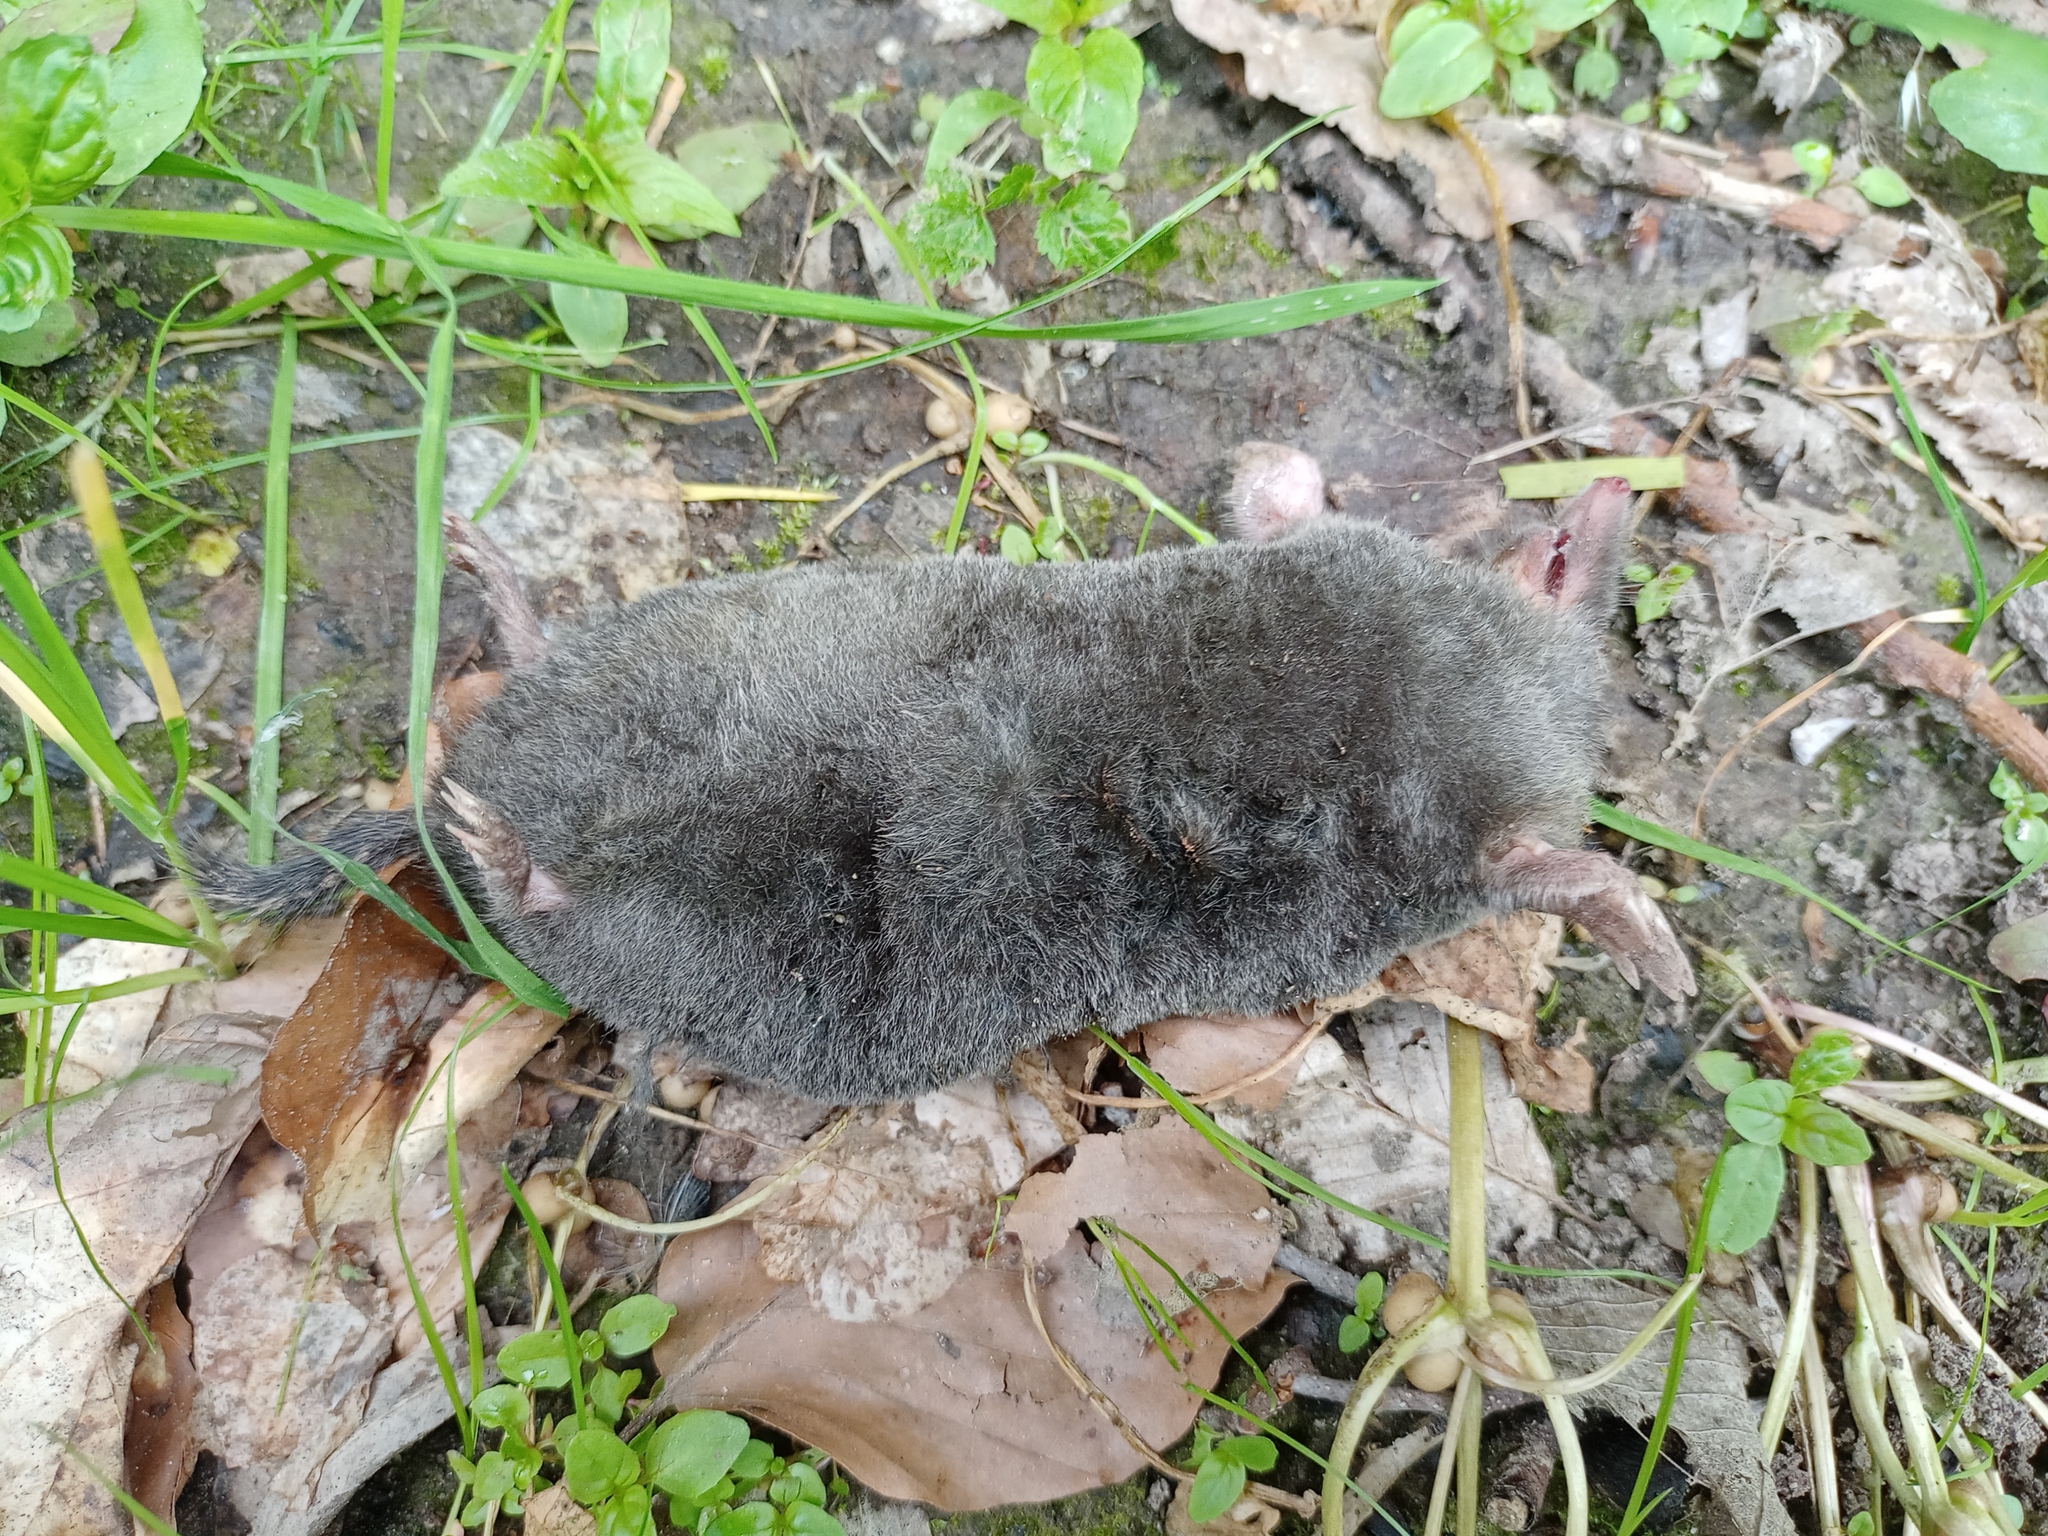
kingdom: Animalia
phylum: Chordata
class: Mammalia
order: Soricomorpha
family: Talpidae
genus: Talpa
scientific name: Talpa europaea
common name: European mole
